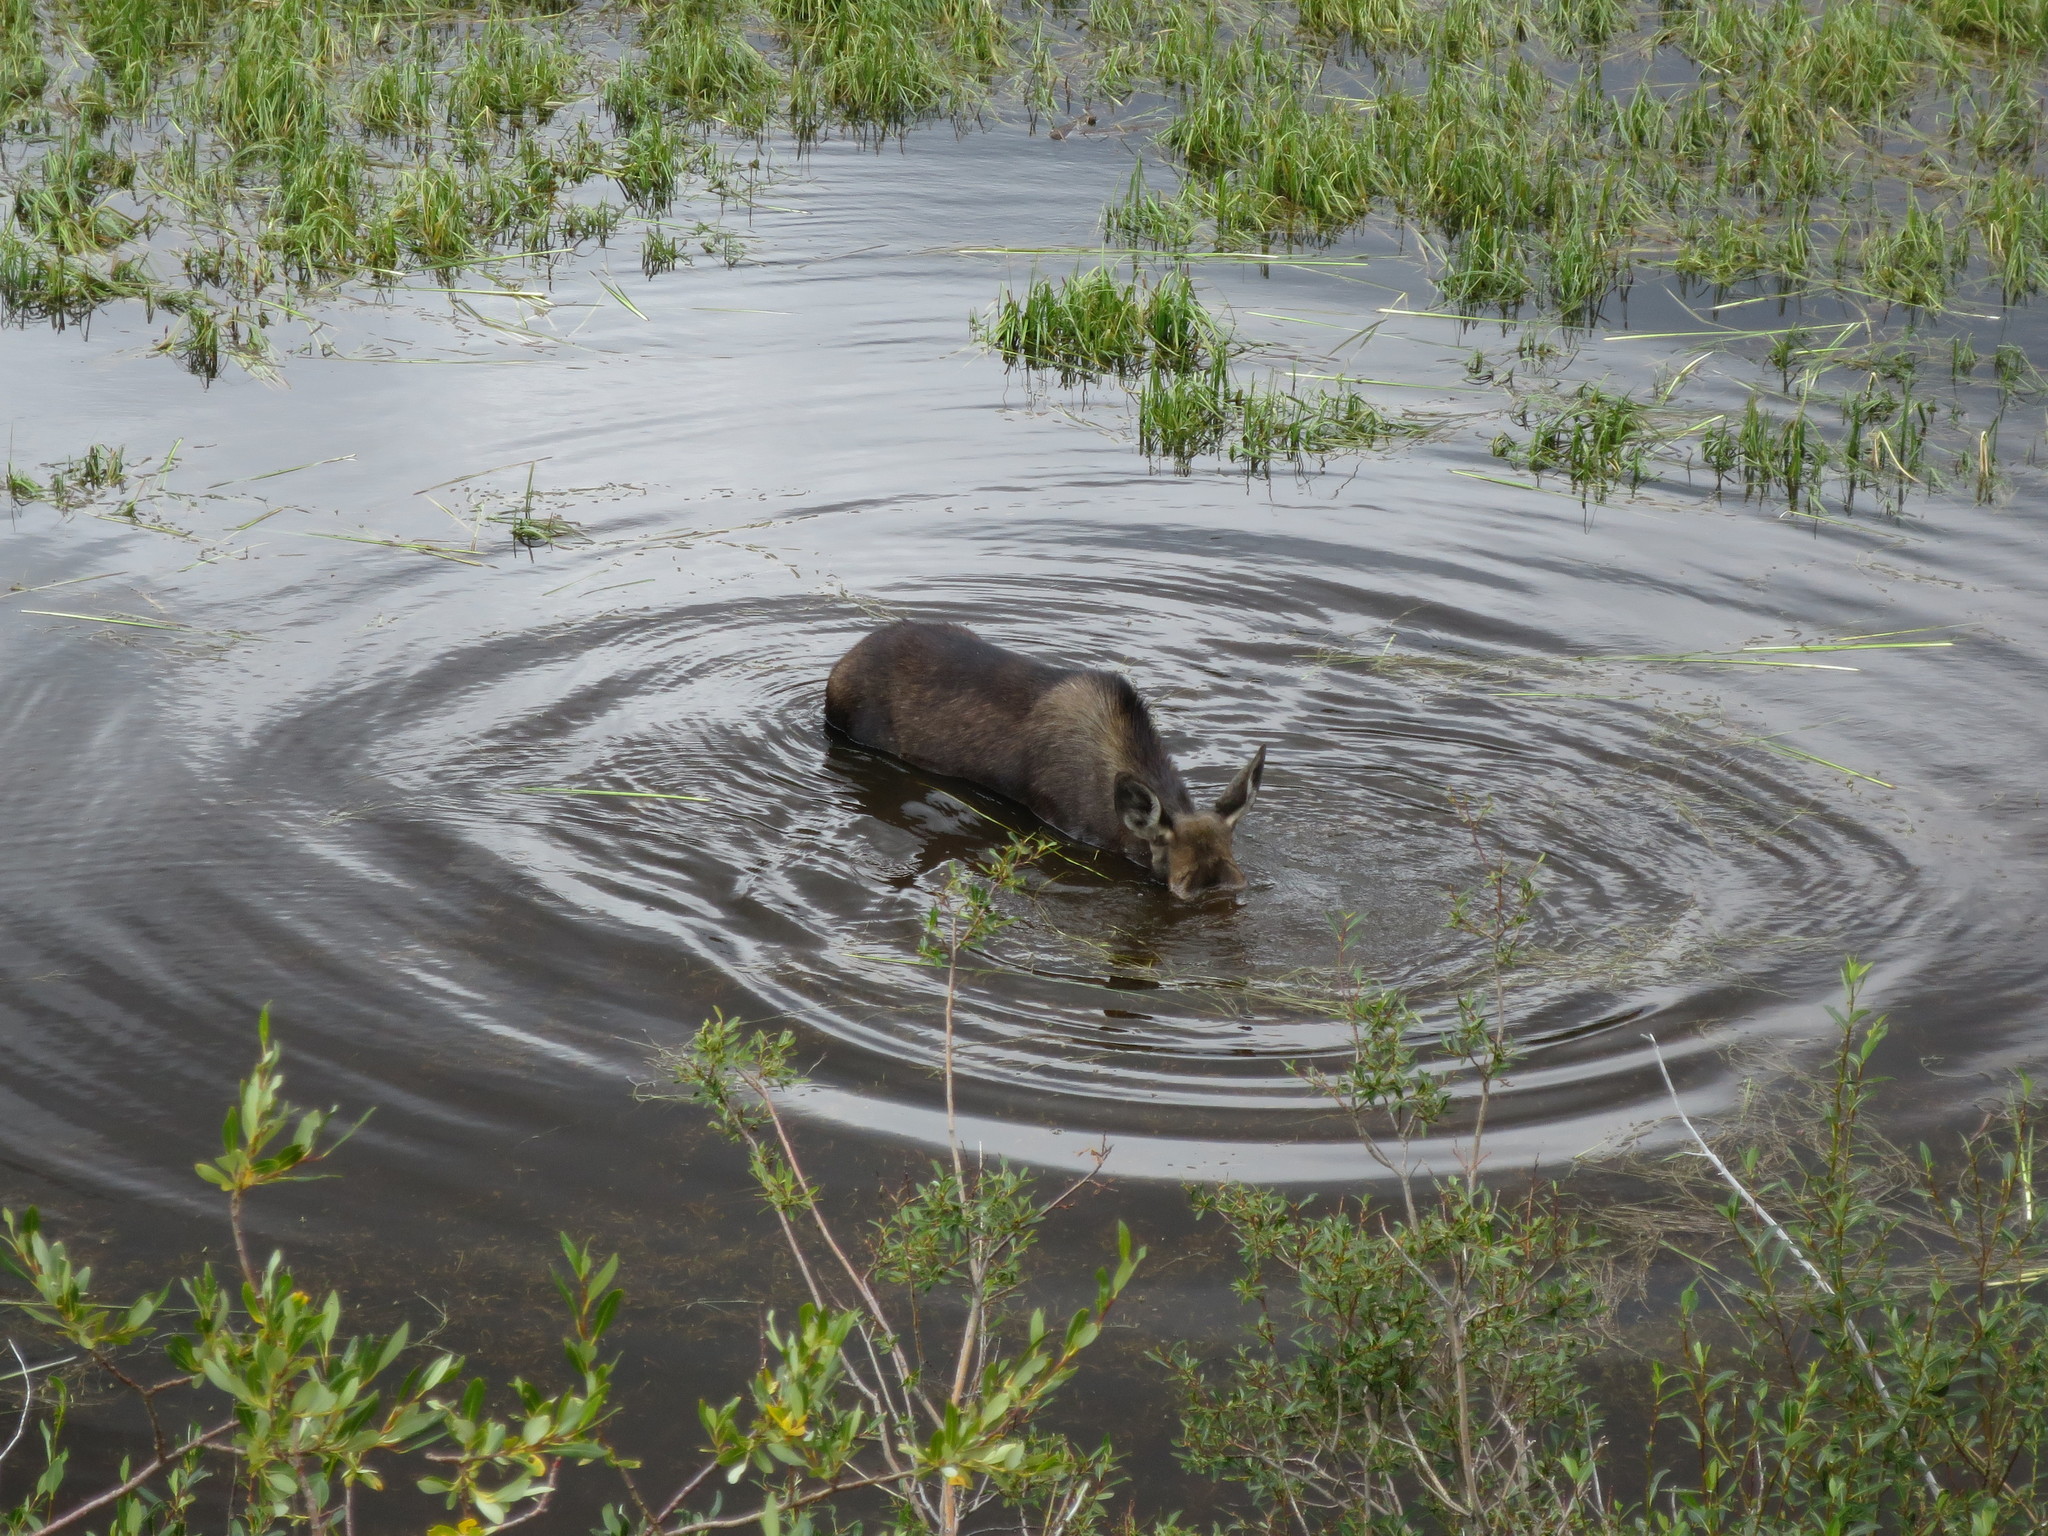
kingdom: Animalia
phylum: Chordata
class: Mammalia
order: Artiodactyla
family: Cervidae
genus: Alces
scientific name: Alces alces
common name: Moose
